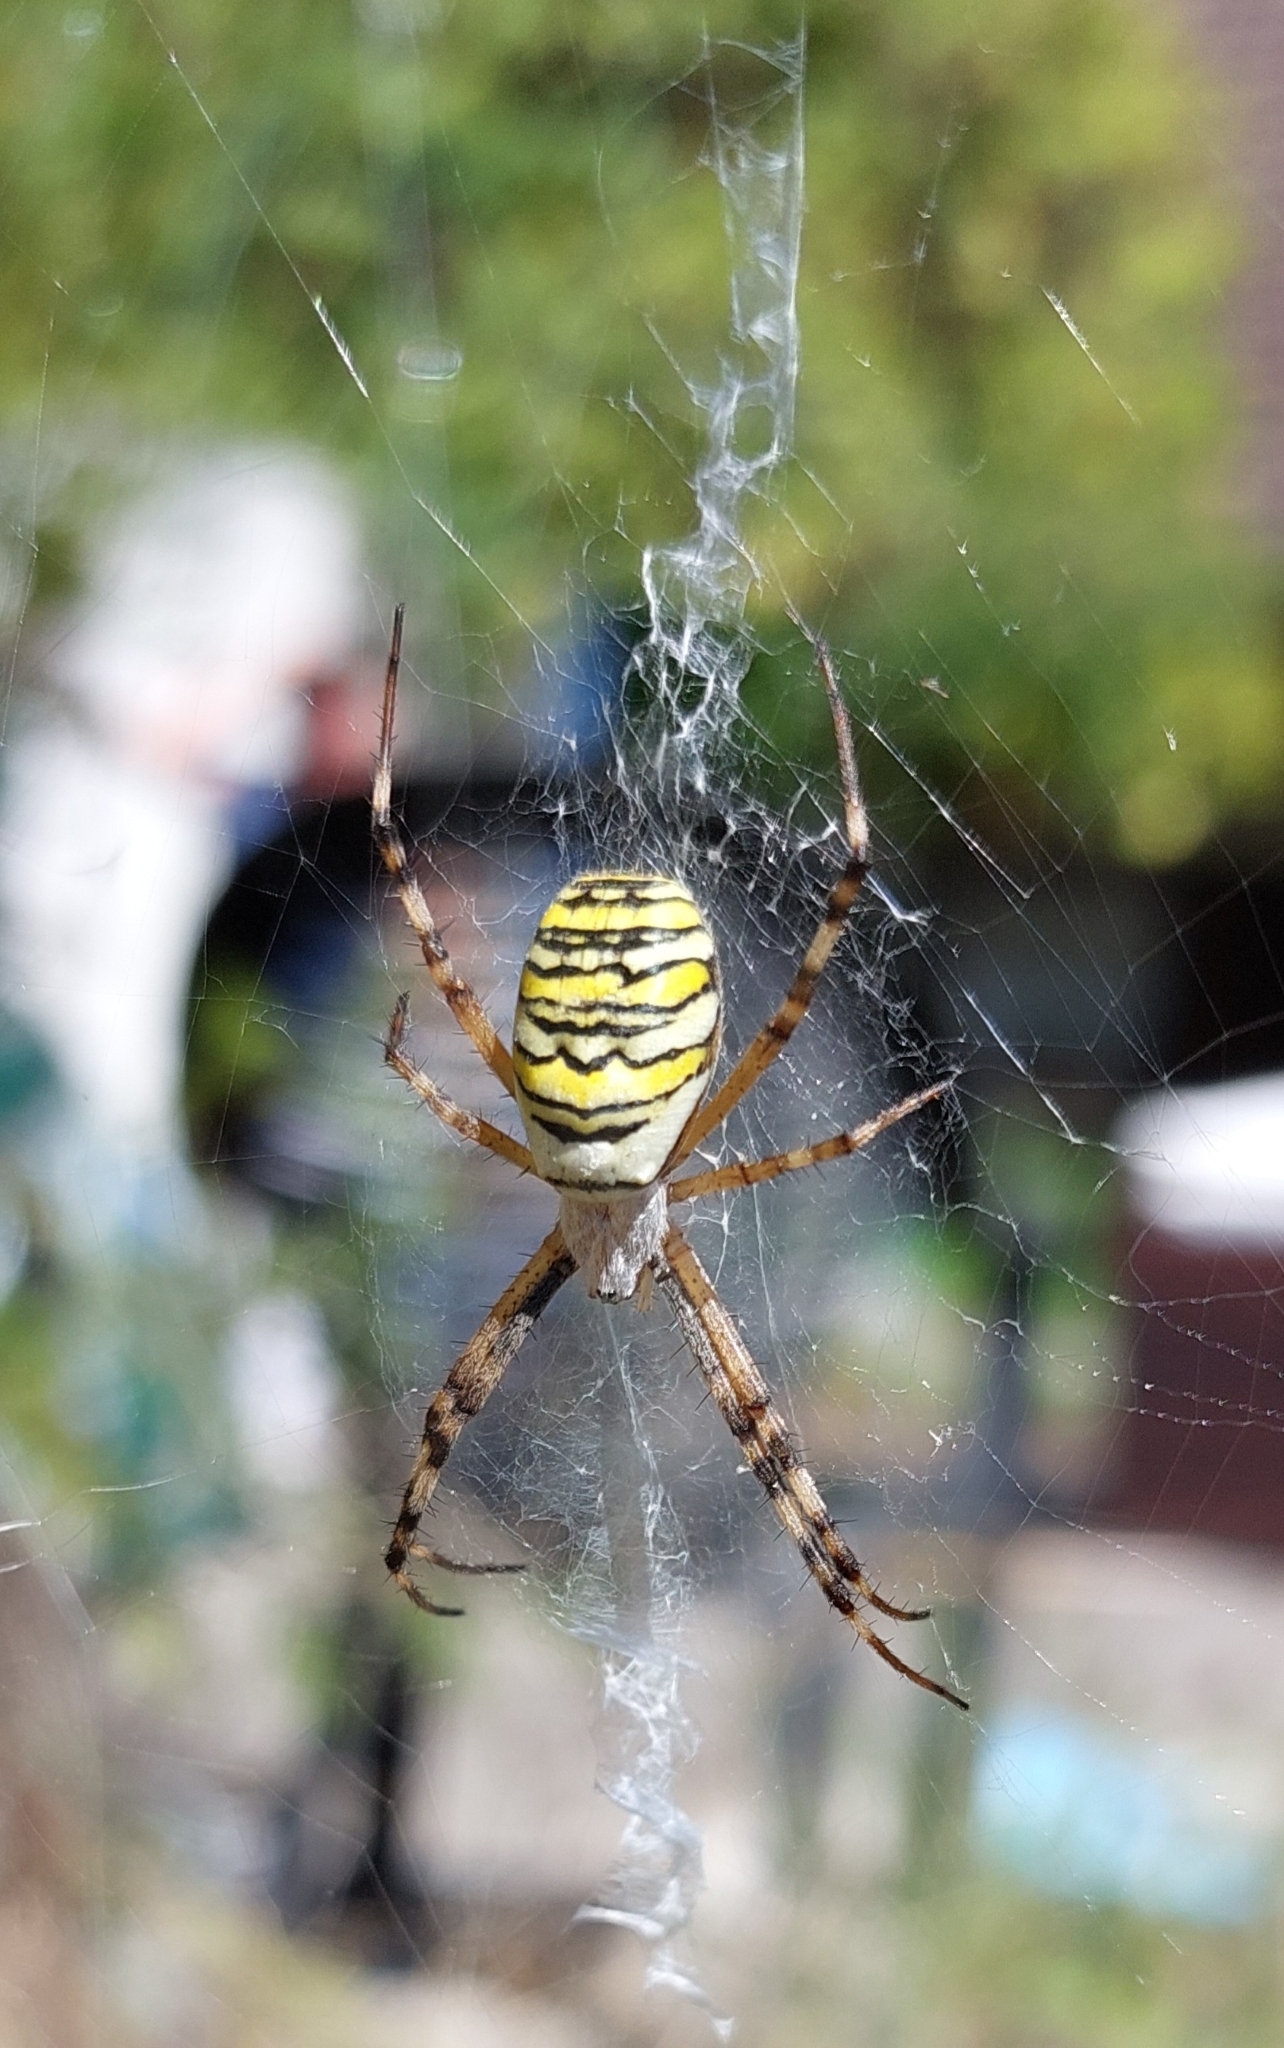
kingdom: Animalia
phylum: Arthropoda
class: Arachnida
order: Araneae
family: Araneidae
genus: Argiope
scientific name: Argiope bruennichi
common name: Wasp spider
